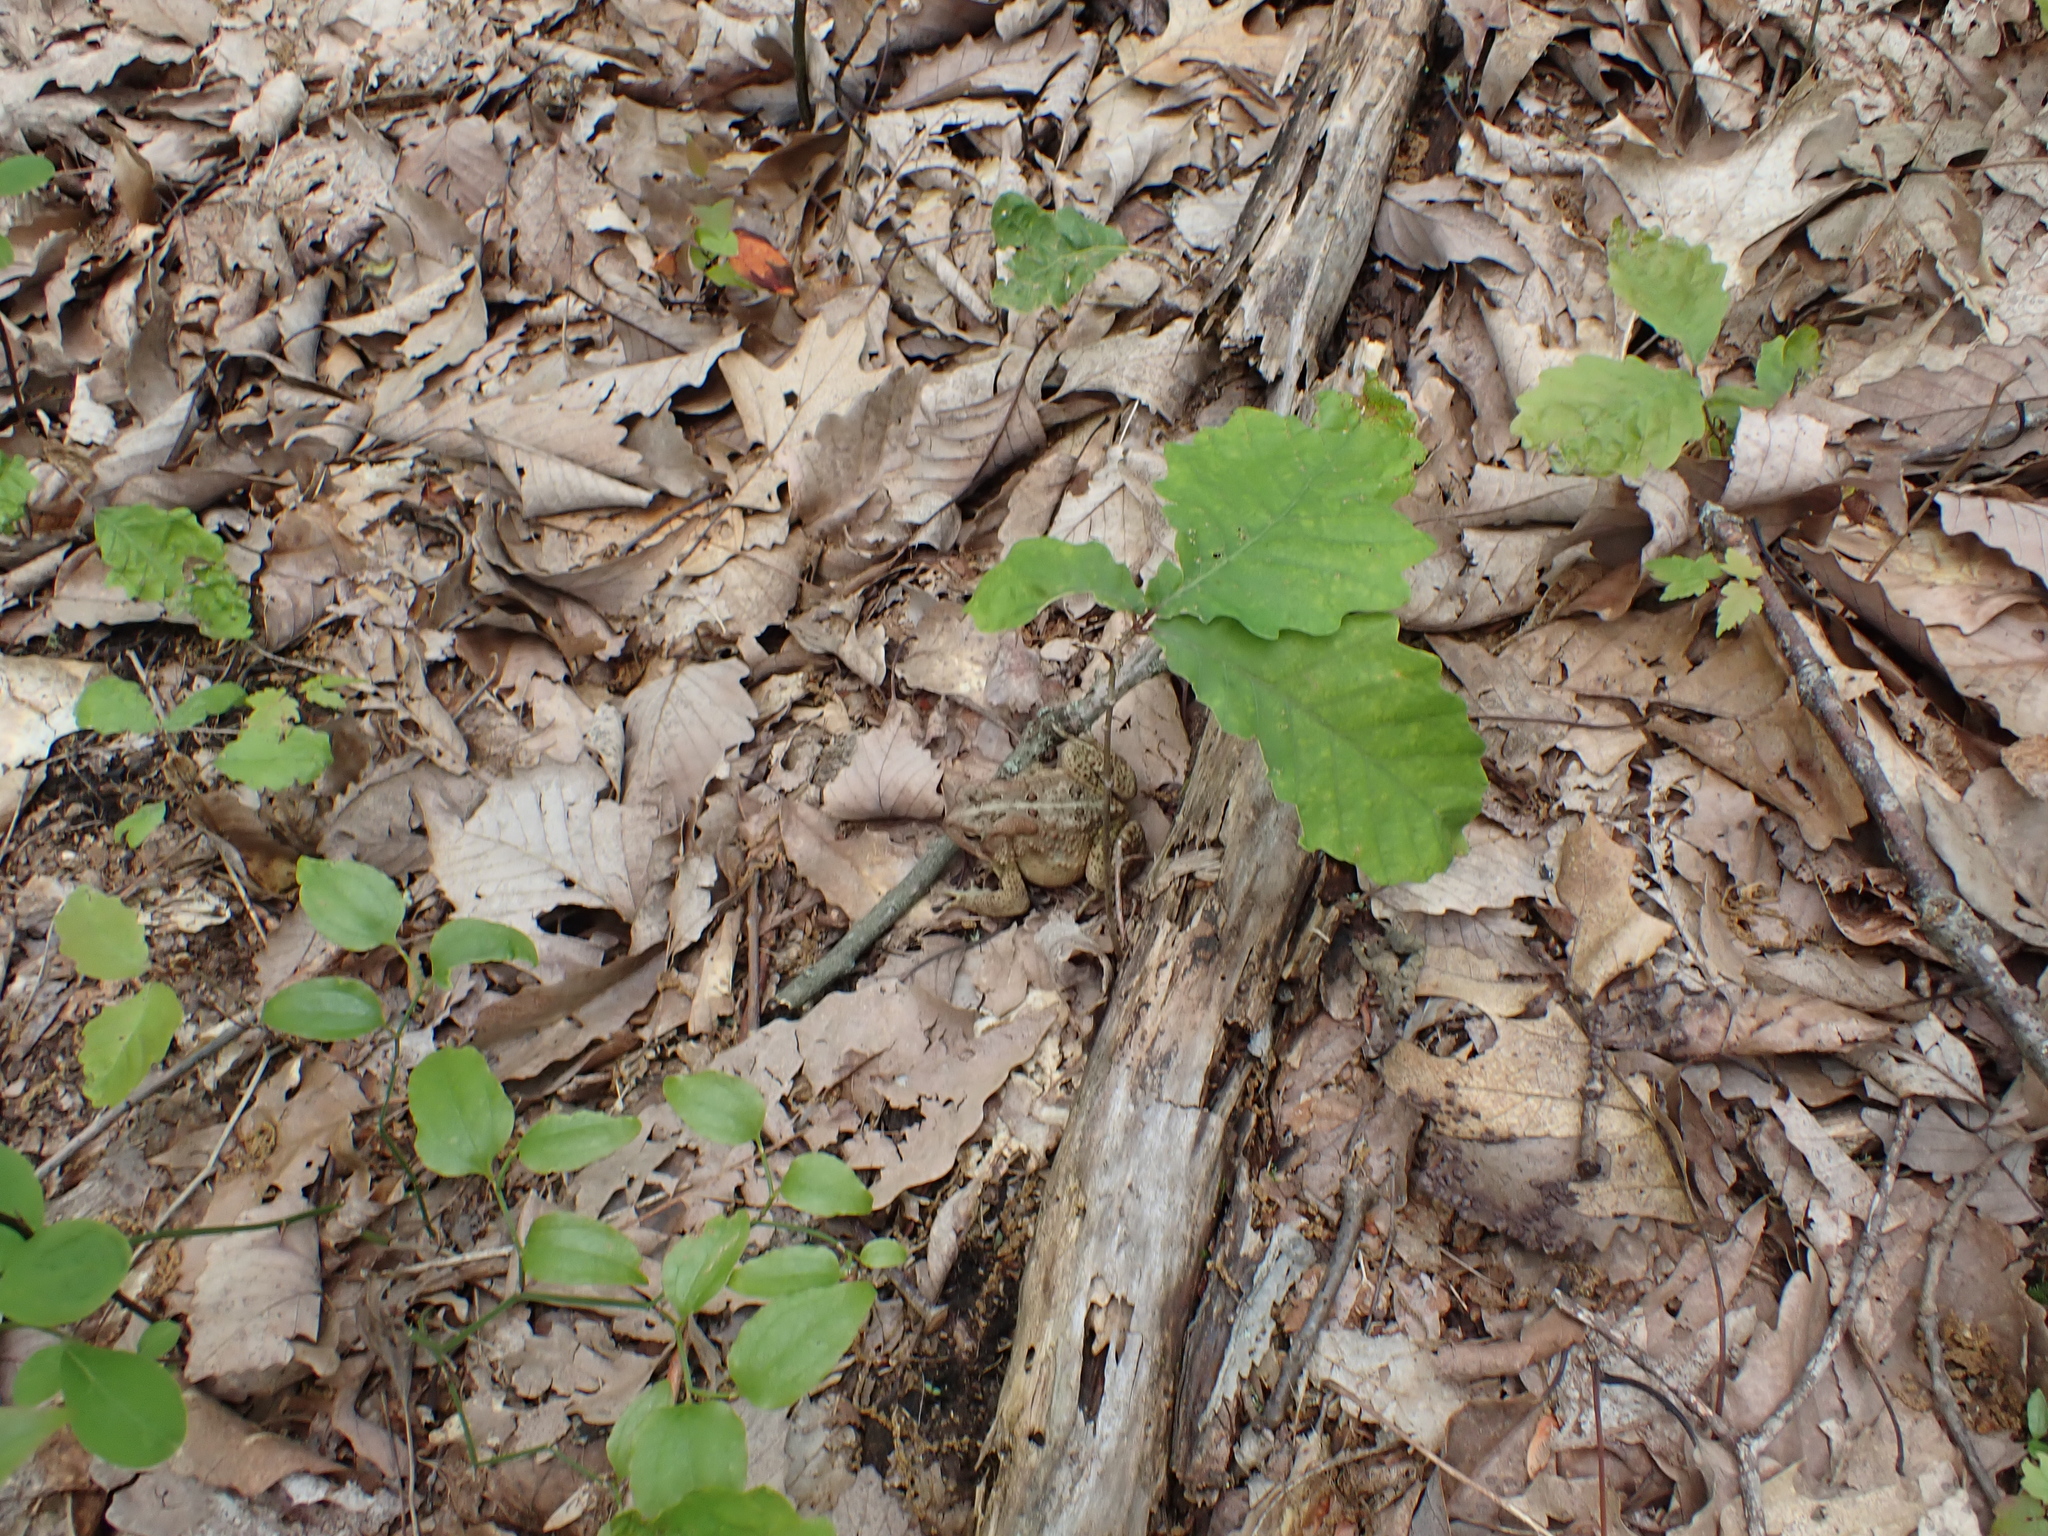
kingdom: Animalia
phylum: Chordata
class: Amphibia
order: Anura
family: Bufonidae
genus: Anaxyrus
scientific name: Anaxyrus americanus
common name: American toad
